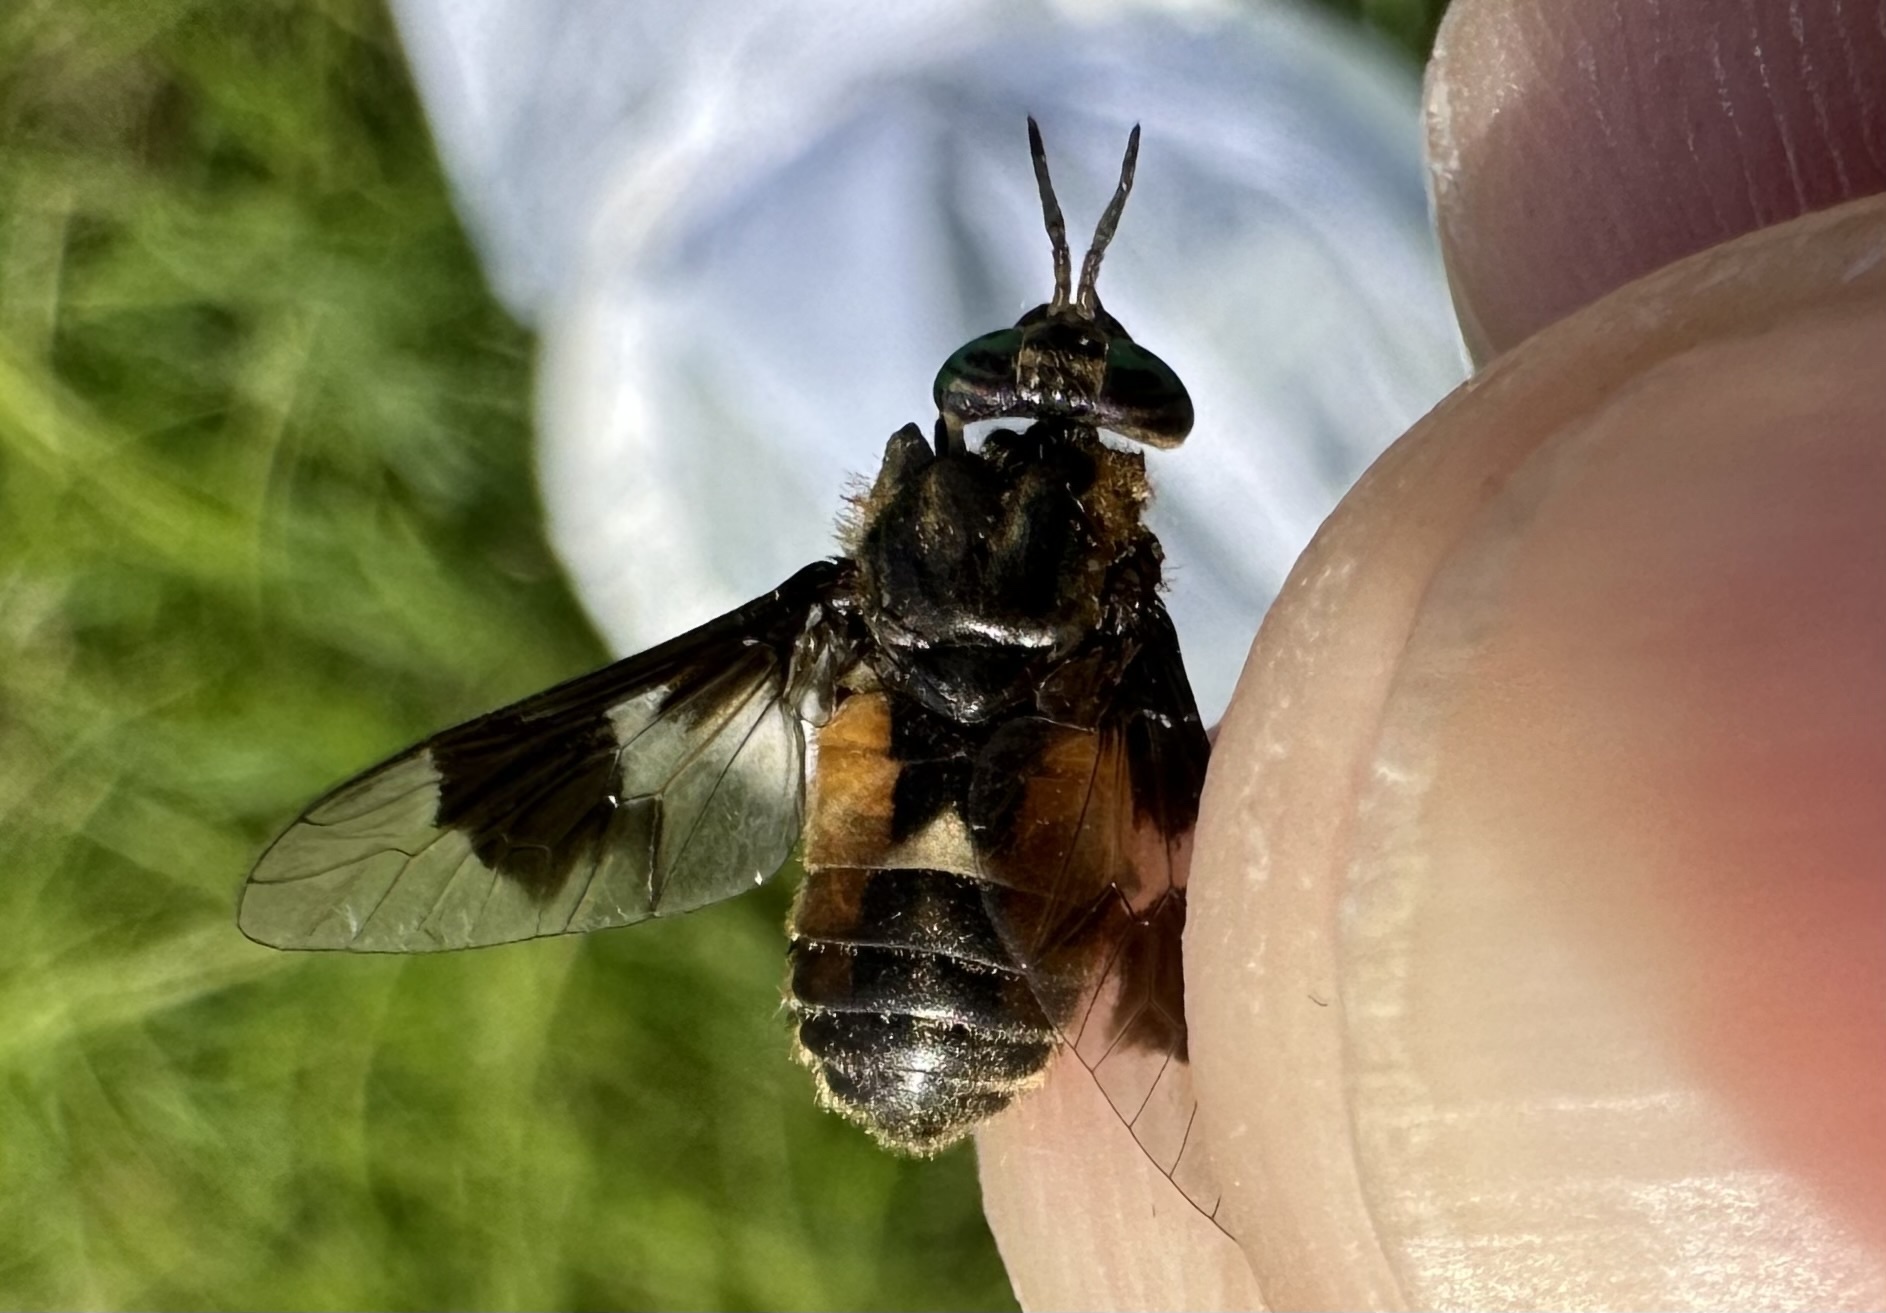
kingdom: Animalia
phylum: Arthropoda
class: Insecta
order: Diptera
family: Tabanidae
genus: Chrysops
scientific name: Chrysops excitans
